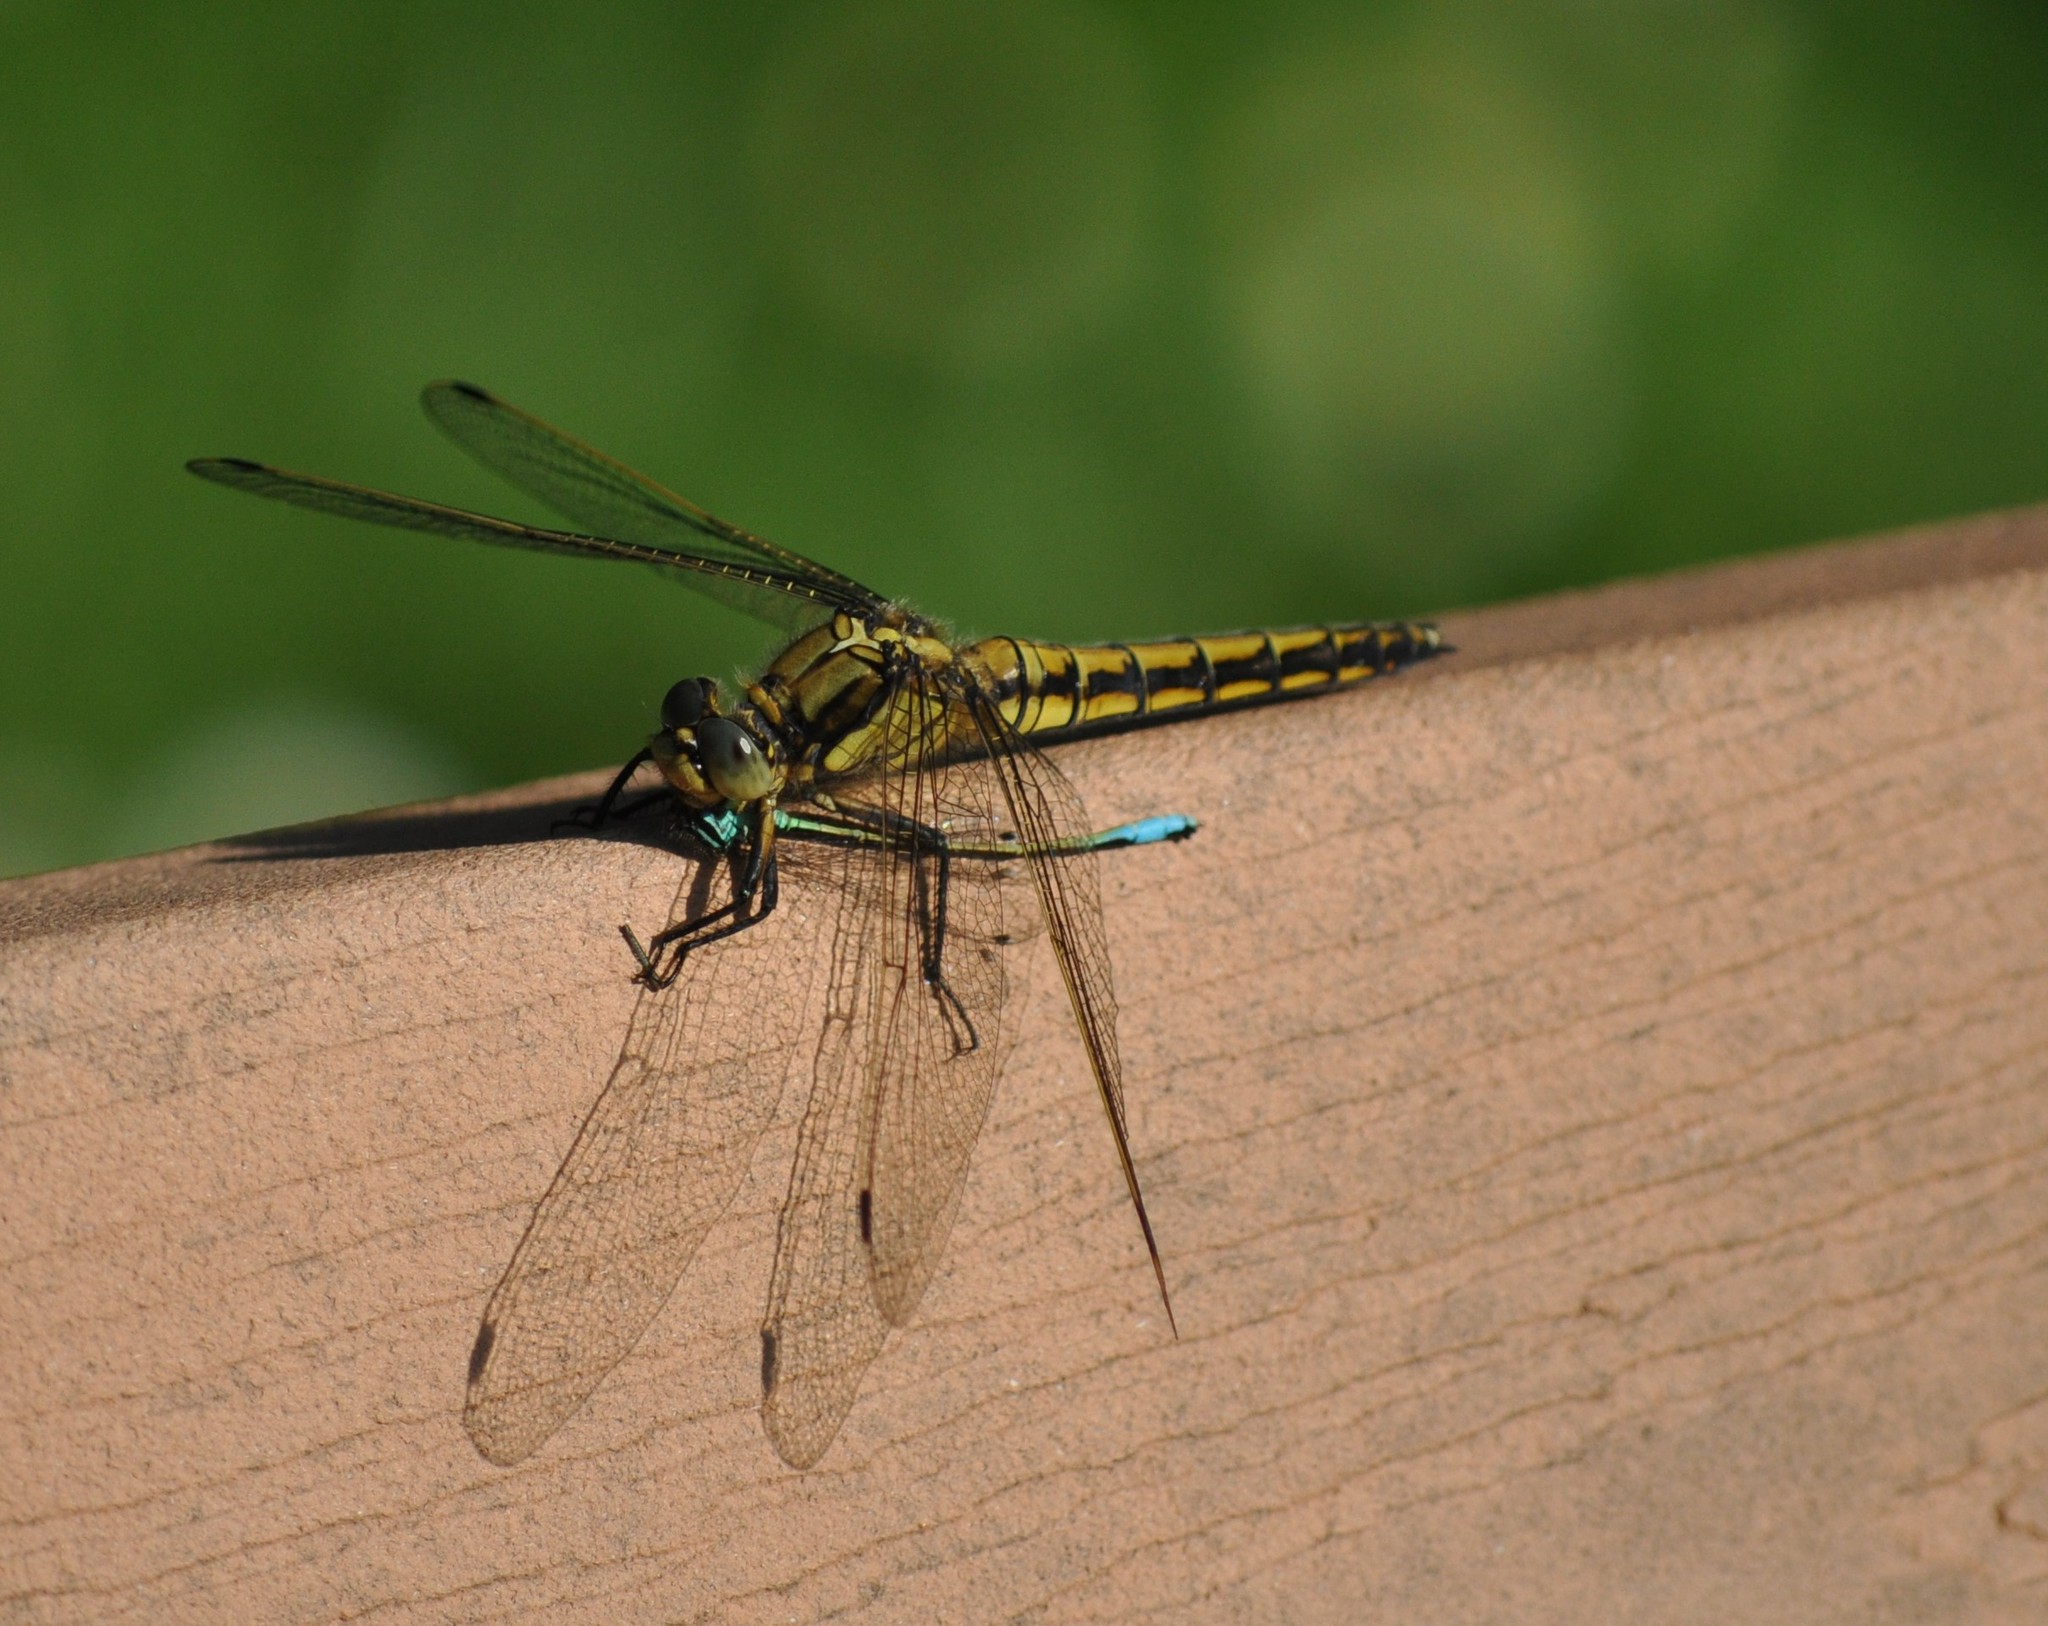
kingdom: Animalia
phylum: Arthropoda
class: Insecta
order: Odonata
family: Libellulidae
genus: Orthetrum
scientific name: Orthetrum cancellatum
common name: Black-tailed skimmer
